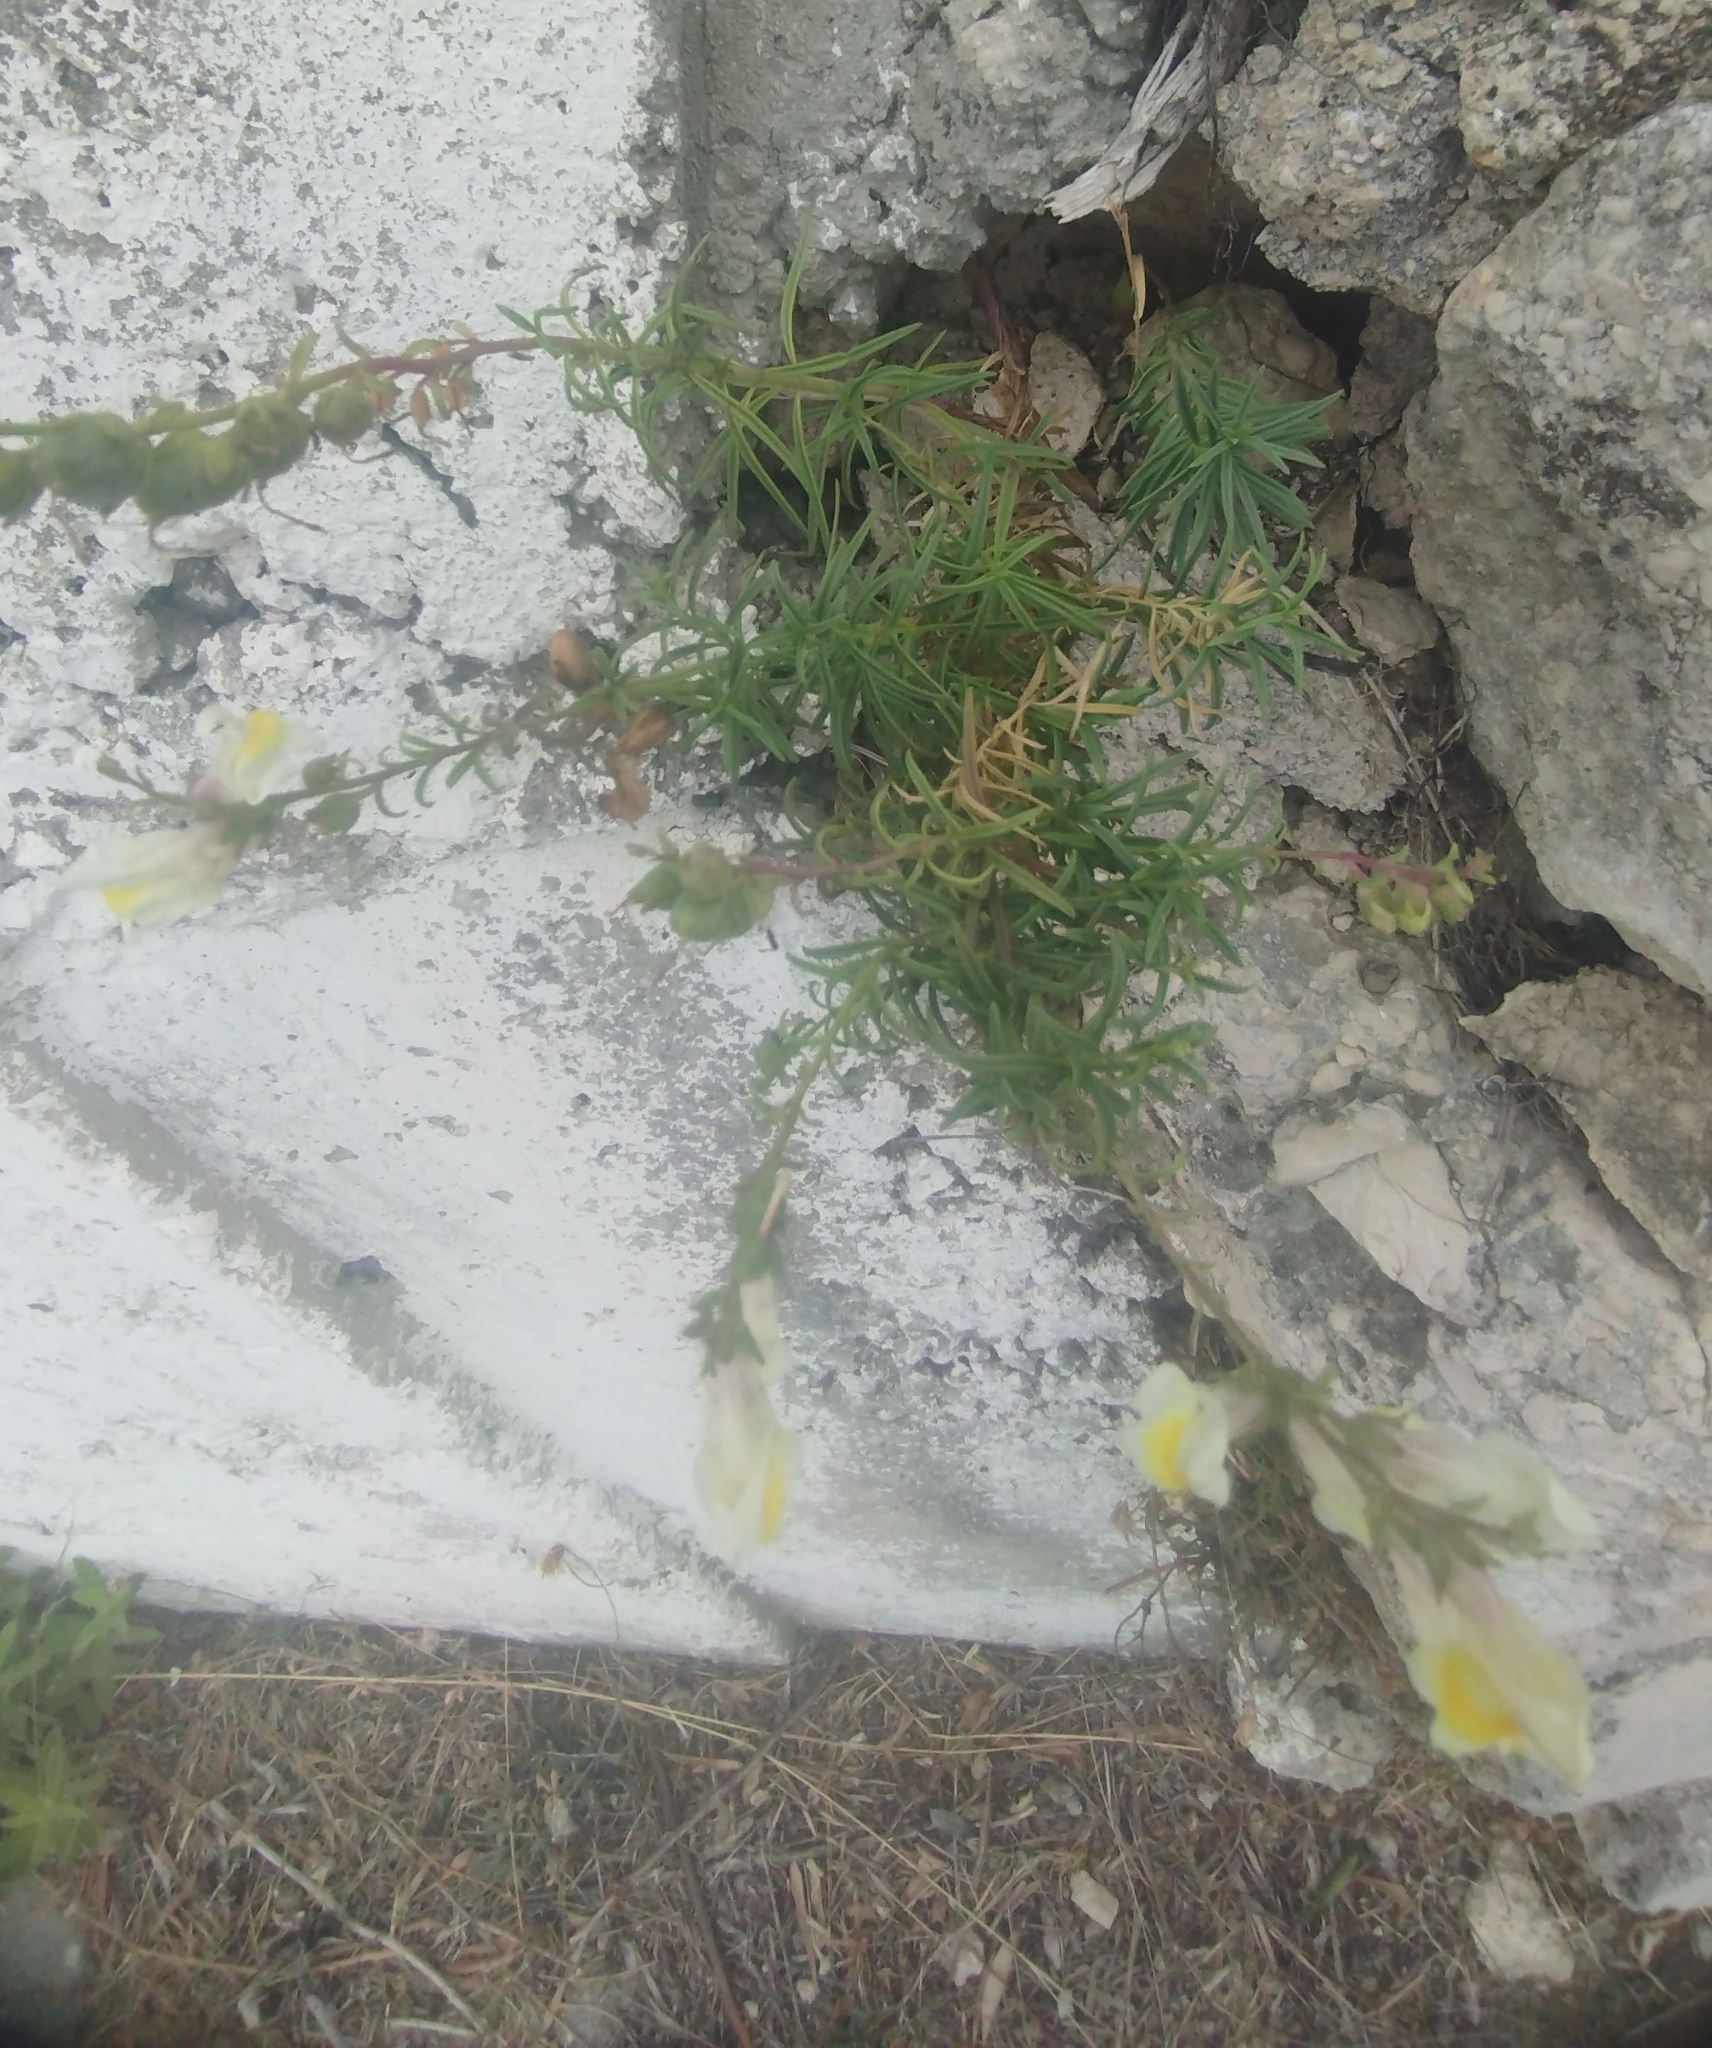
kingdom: Plantae
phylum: Tracheophyta
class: Magnoliopsida
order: Lamiales
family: Plantaginaceae
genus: Antirrhinum
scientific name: Antirrhinum siculum
